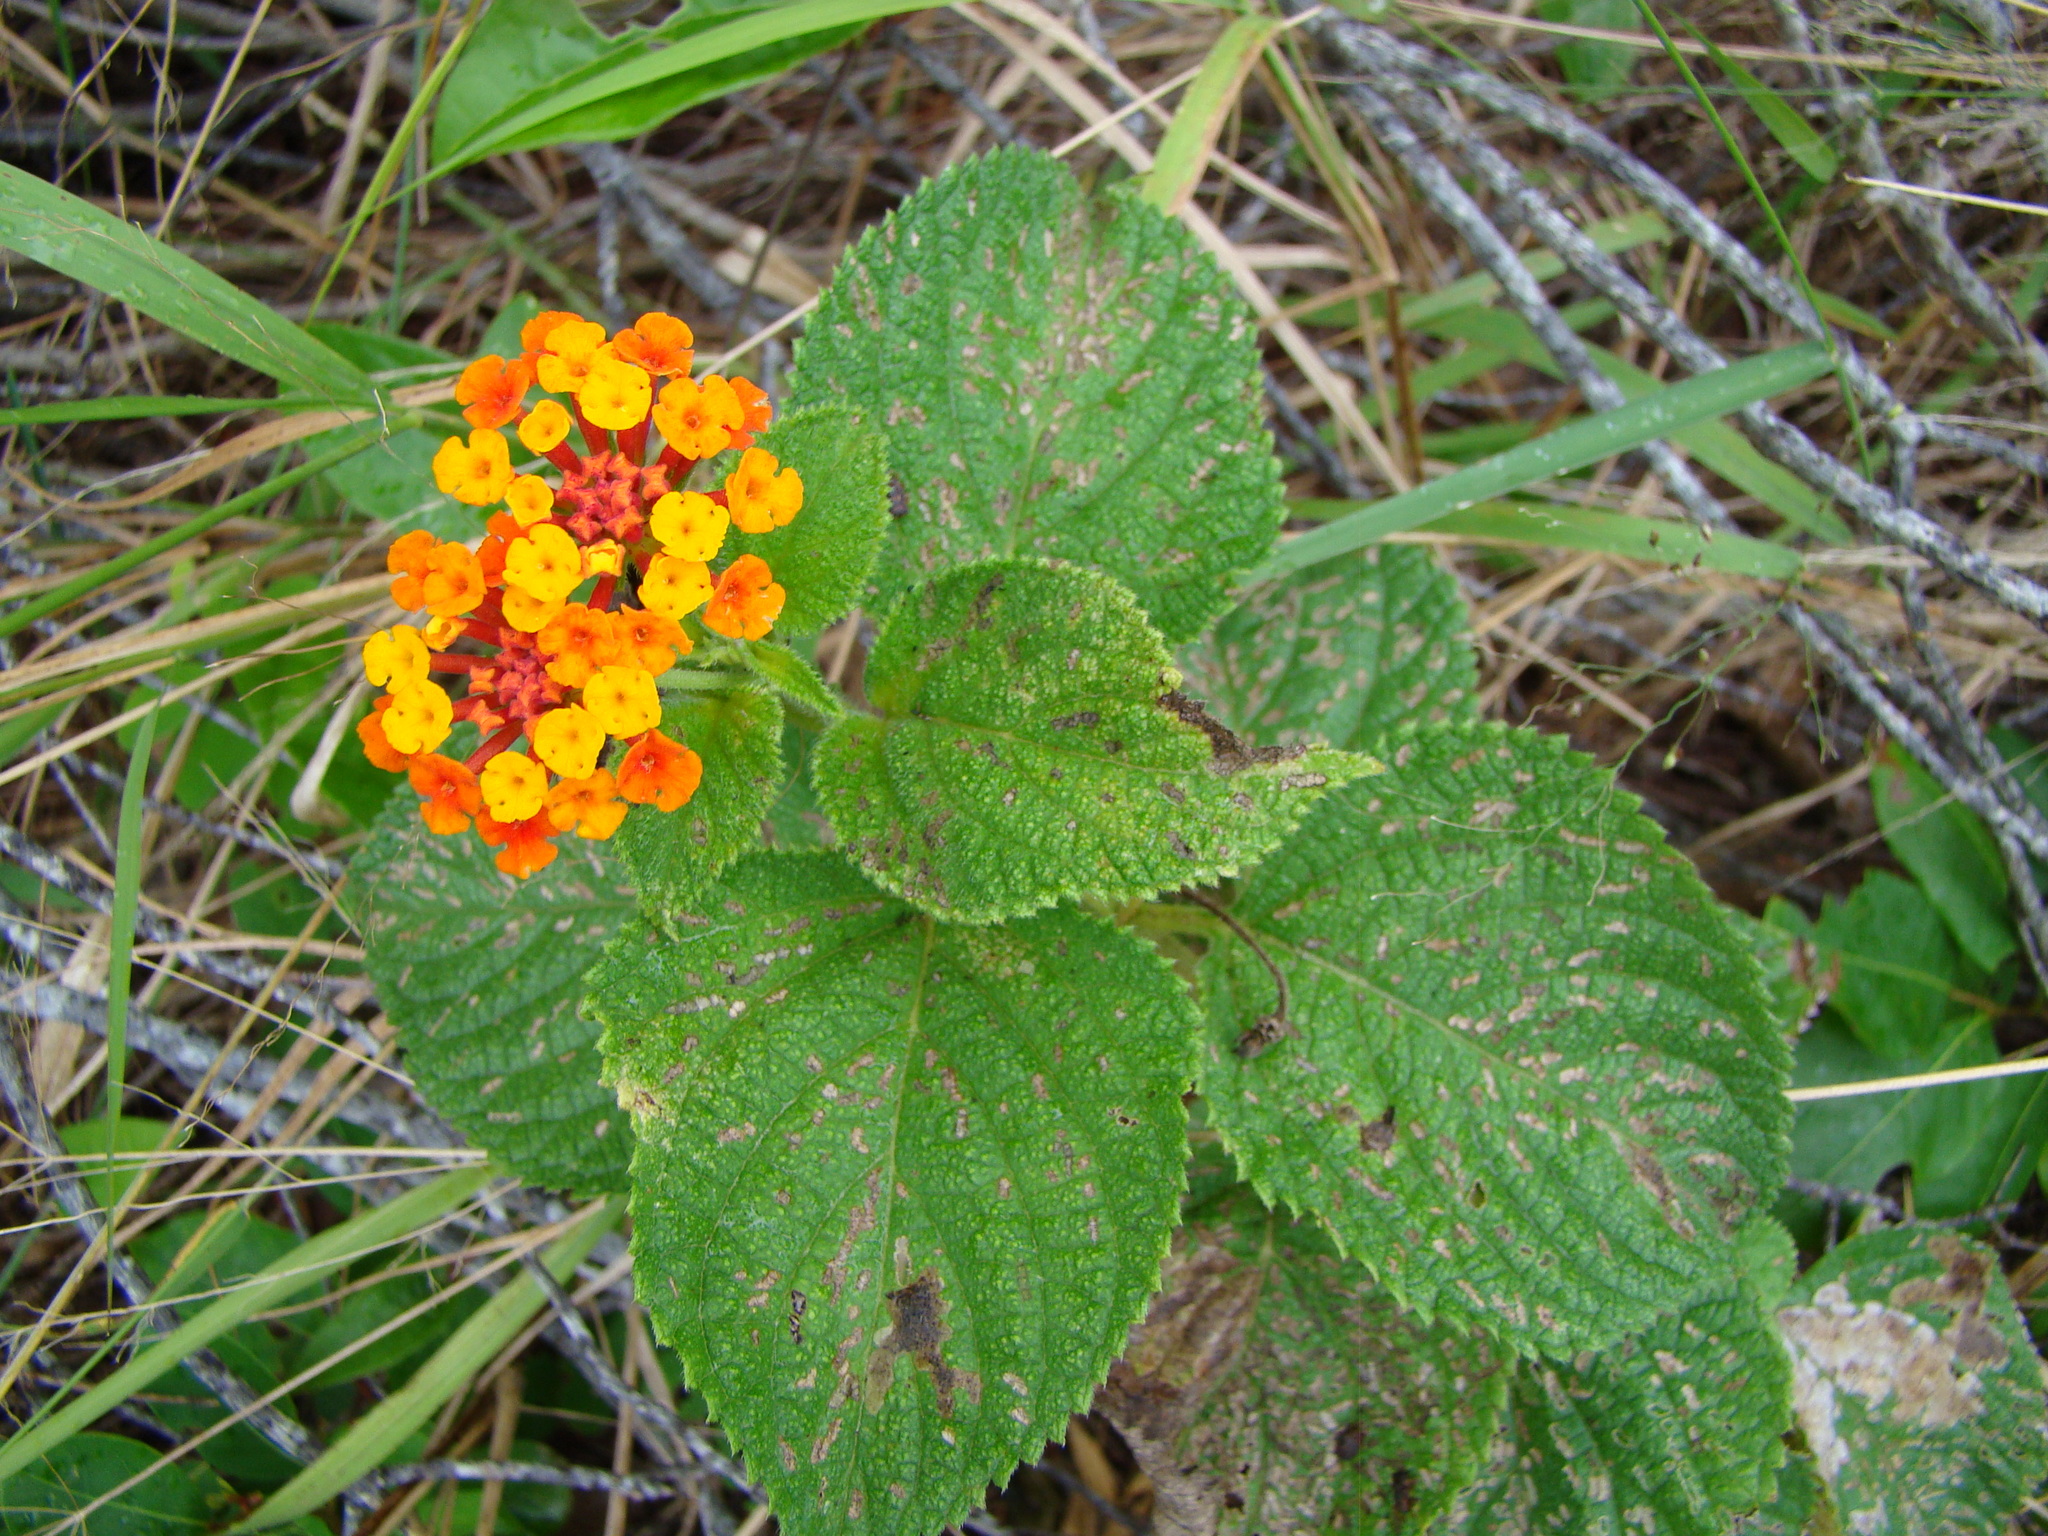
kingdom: Plantae
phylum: Tracheophyta
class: Magnoliopsida
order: Lamiales
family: Verbenaceae
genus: Lantana
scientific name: Lantana camara
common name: Lantana
